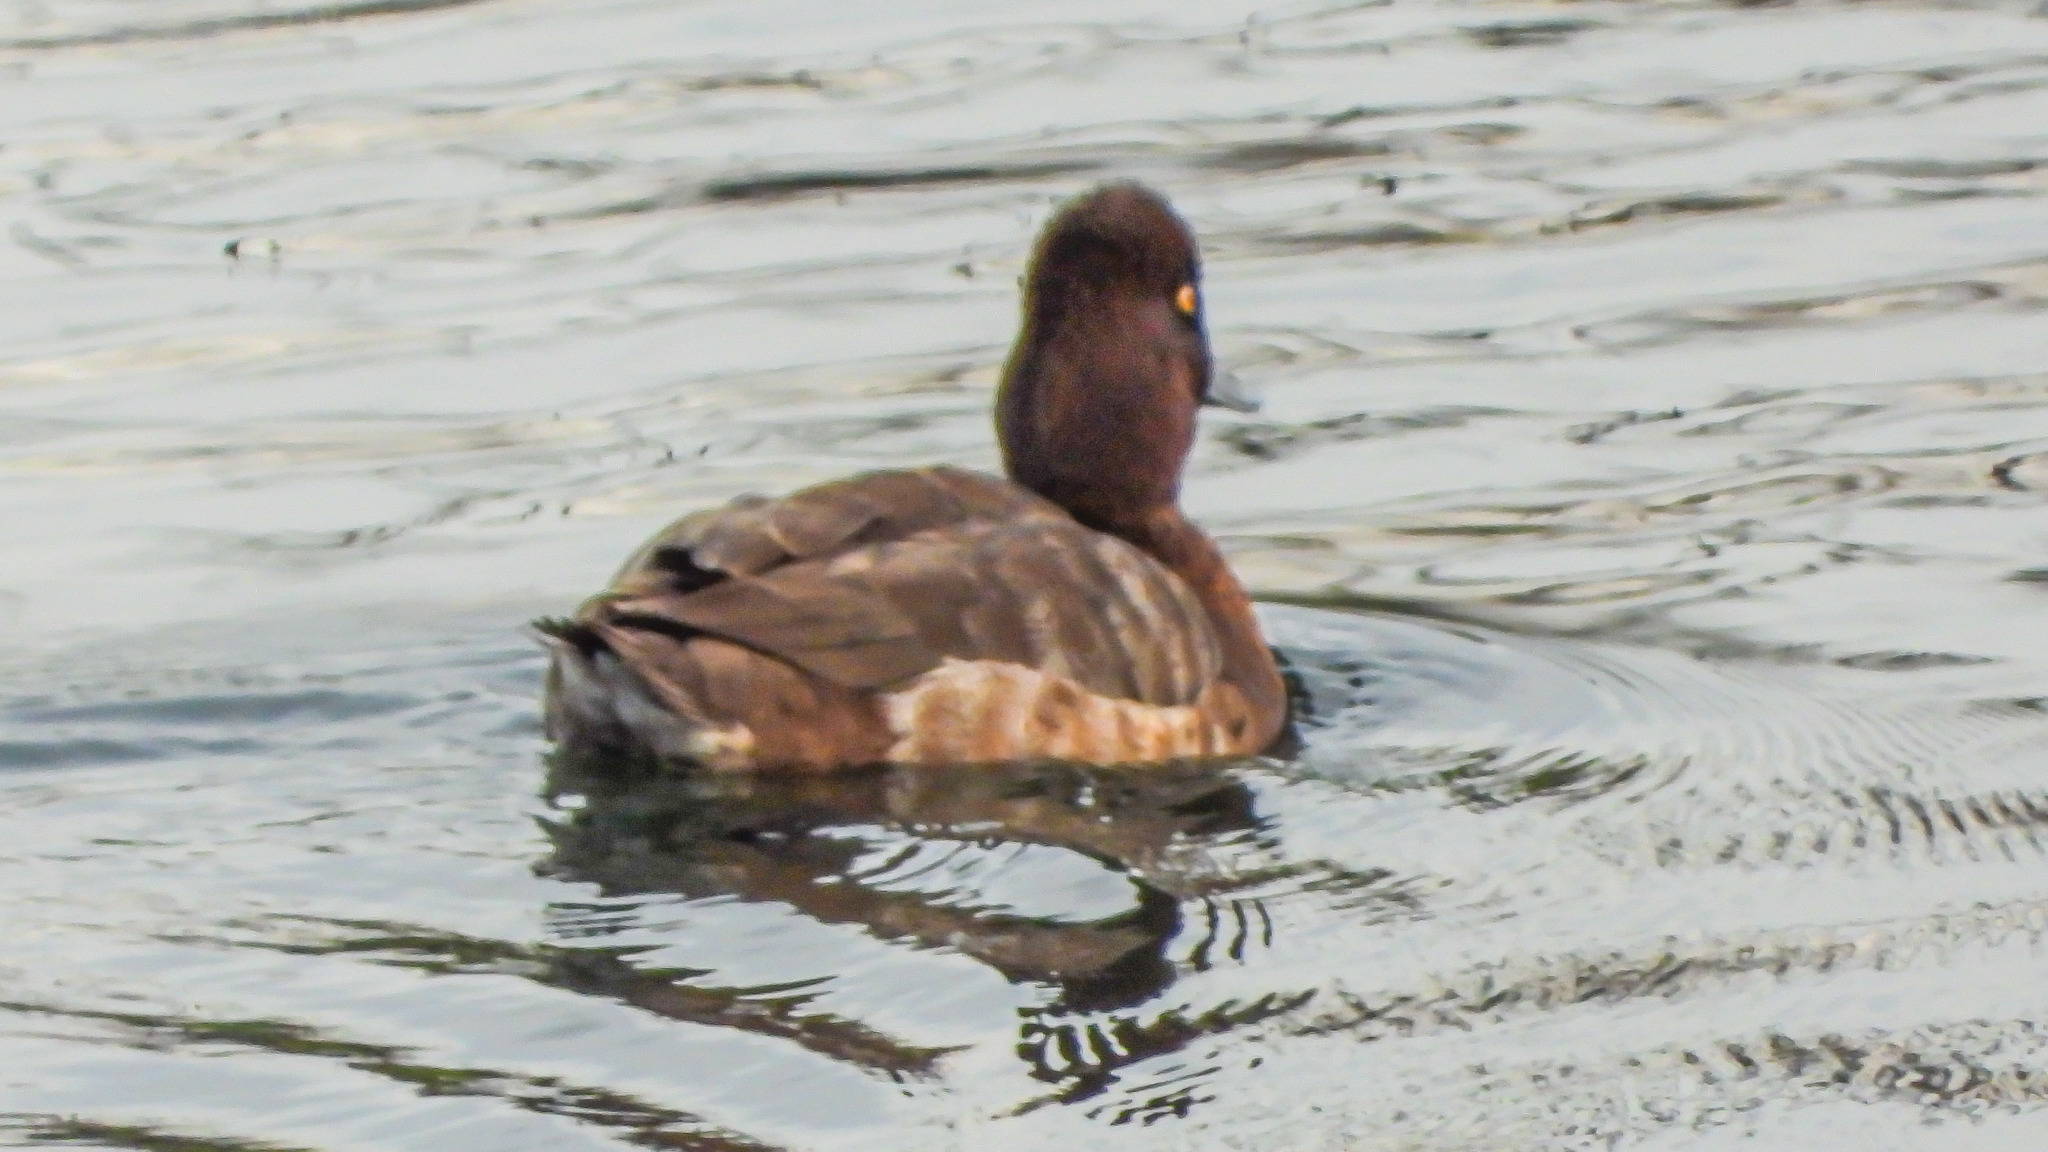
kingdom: Animalia
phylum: Chordata
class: Aves
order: Anseriformes
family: Anatidae
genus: Aythya
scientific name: Aythya affinis
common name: Lesser scaup
